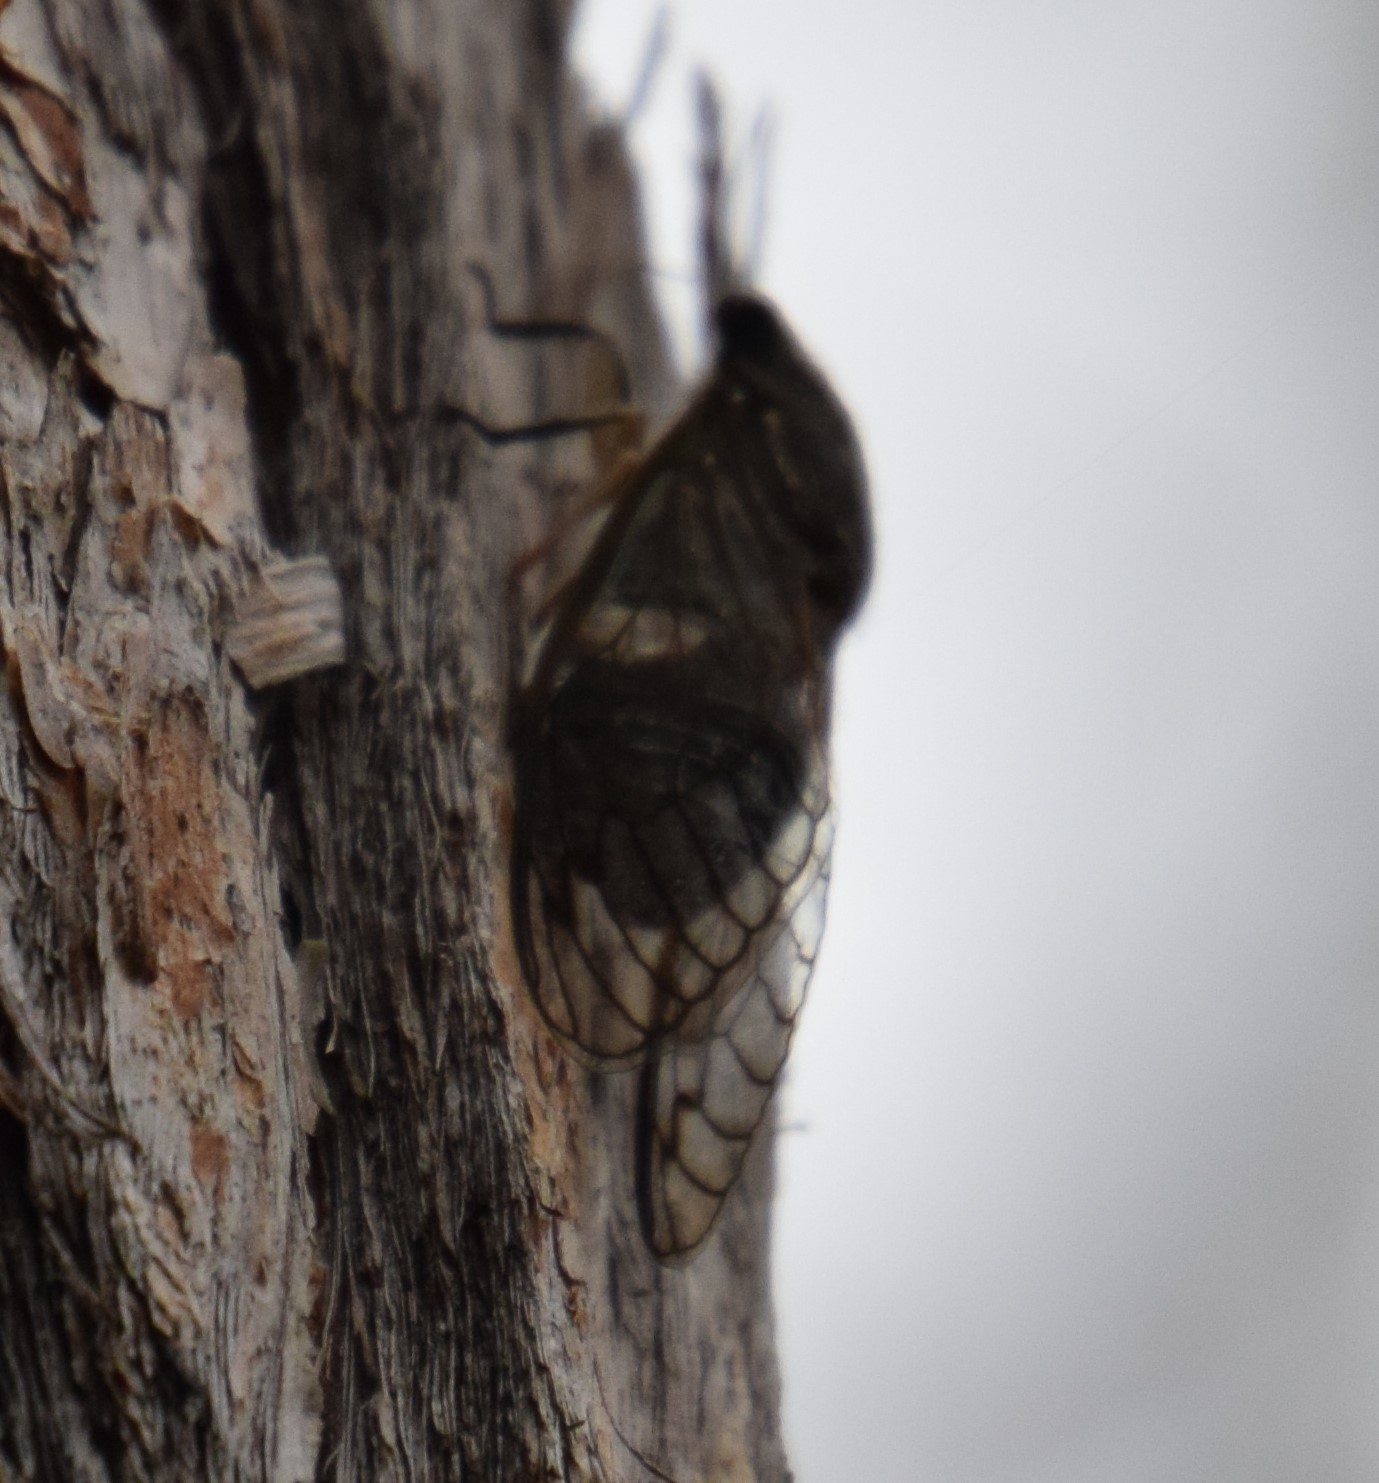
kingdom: Animalia
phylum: Arthropoda
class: Insecta
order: Hemiptera
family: Cicadidae
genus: Psaltoda
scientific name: Psaltoda mossi
